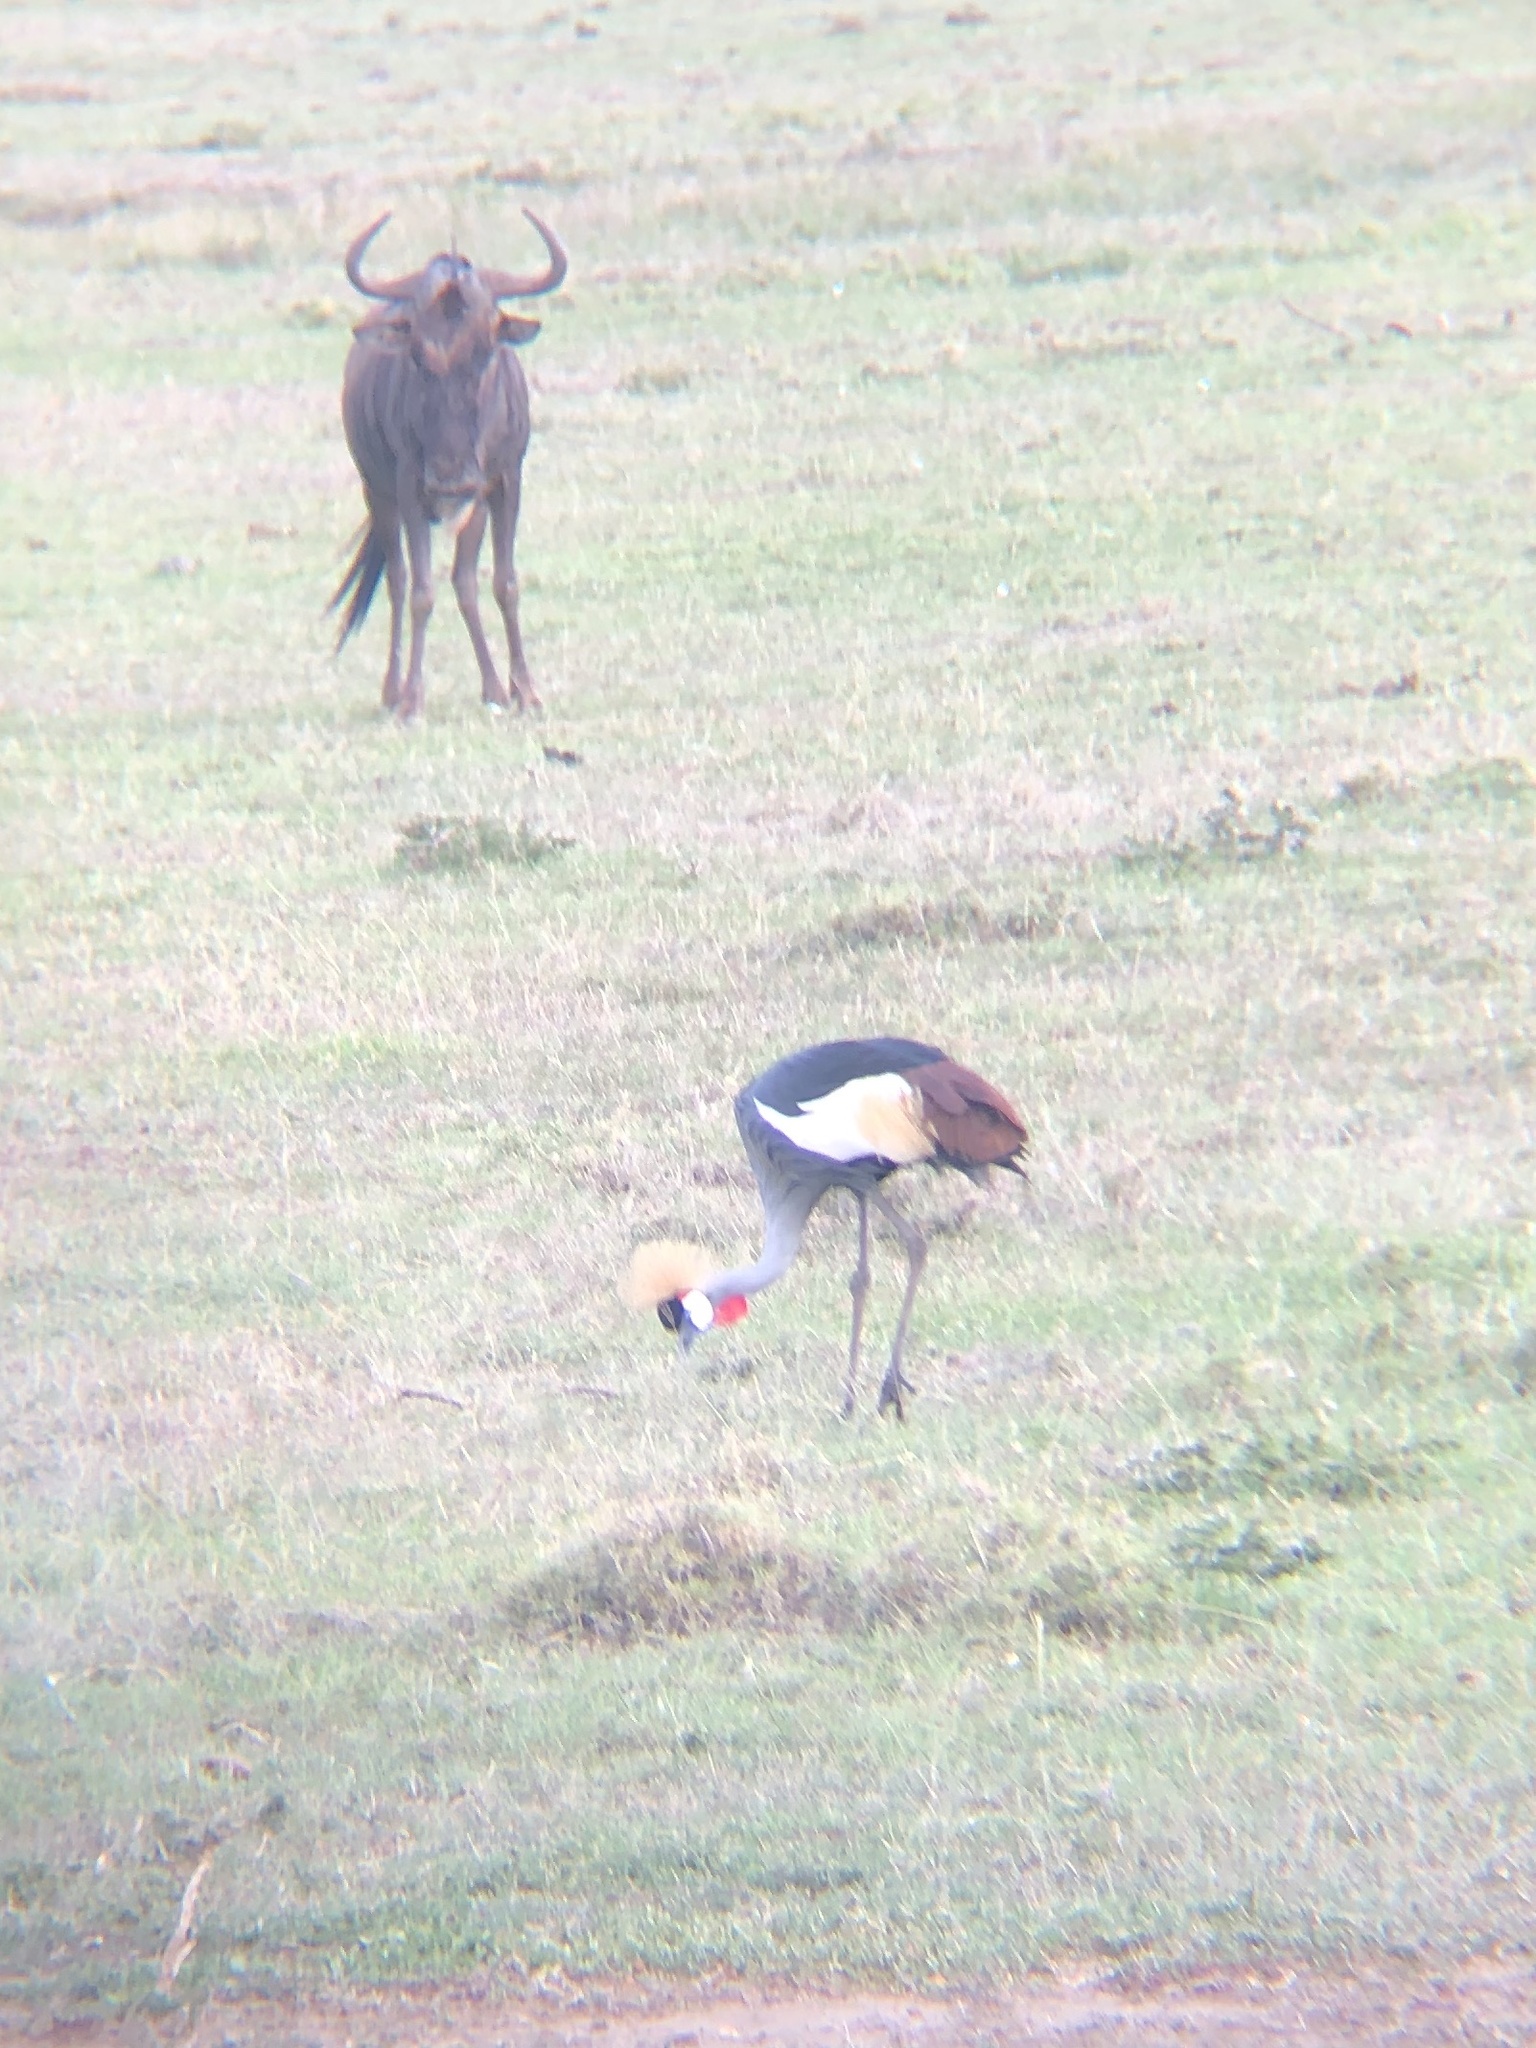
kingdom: Animalia
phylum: Chordata
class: Aves
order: Gruiformes
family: Gruidae
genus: Balearica
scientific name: Balearica regulorum
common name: Grey crowned crane
